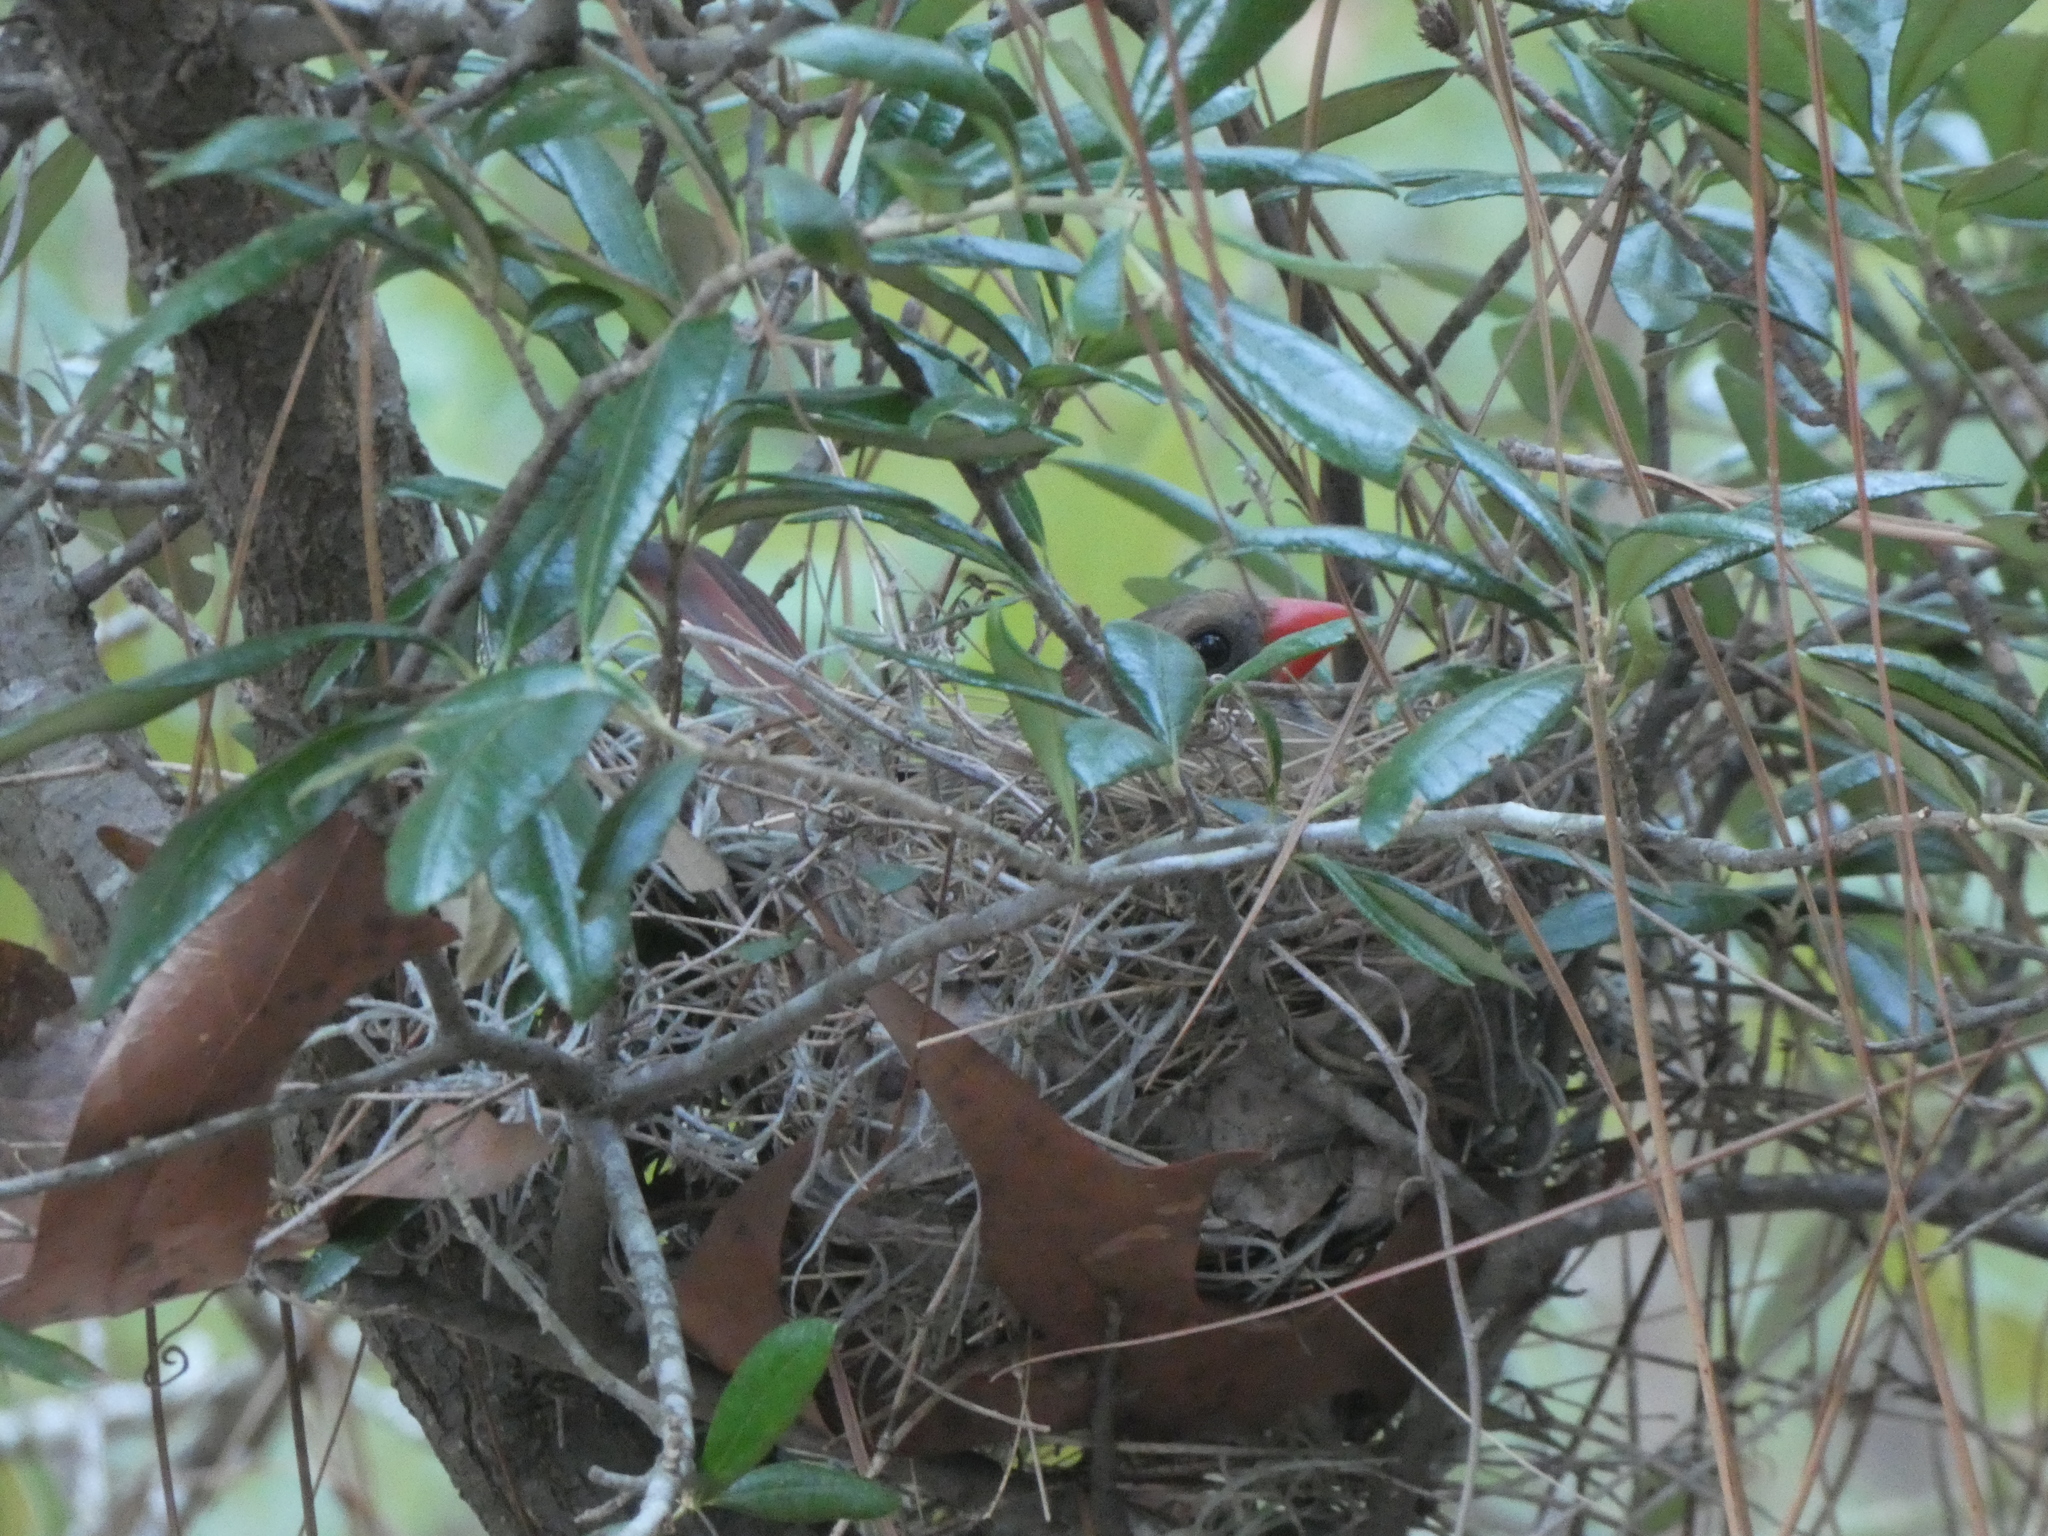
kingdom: Animalia
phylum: Chordata
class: Aves
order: Passeriformes
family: Cardinalidae
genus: Cardinalis
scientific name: Cardinalis cardinalis
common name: Northern cardinal
